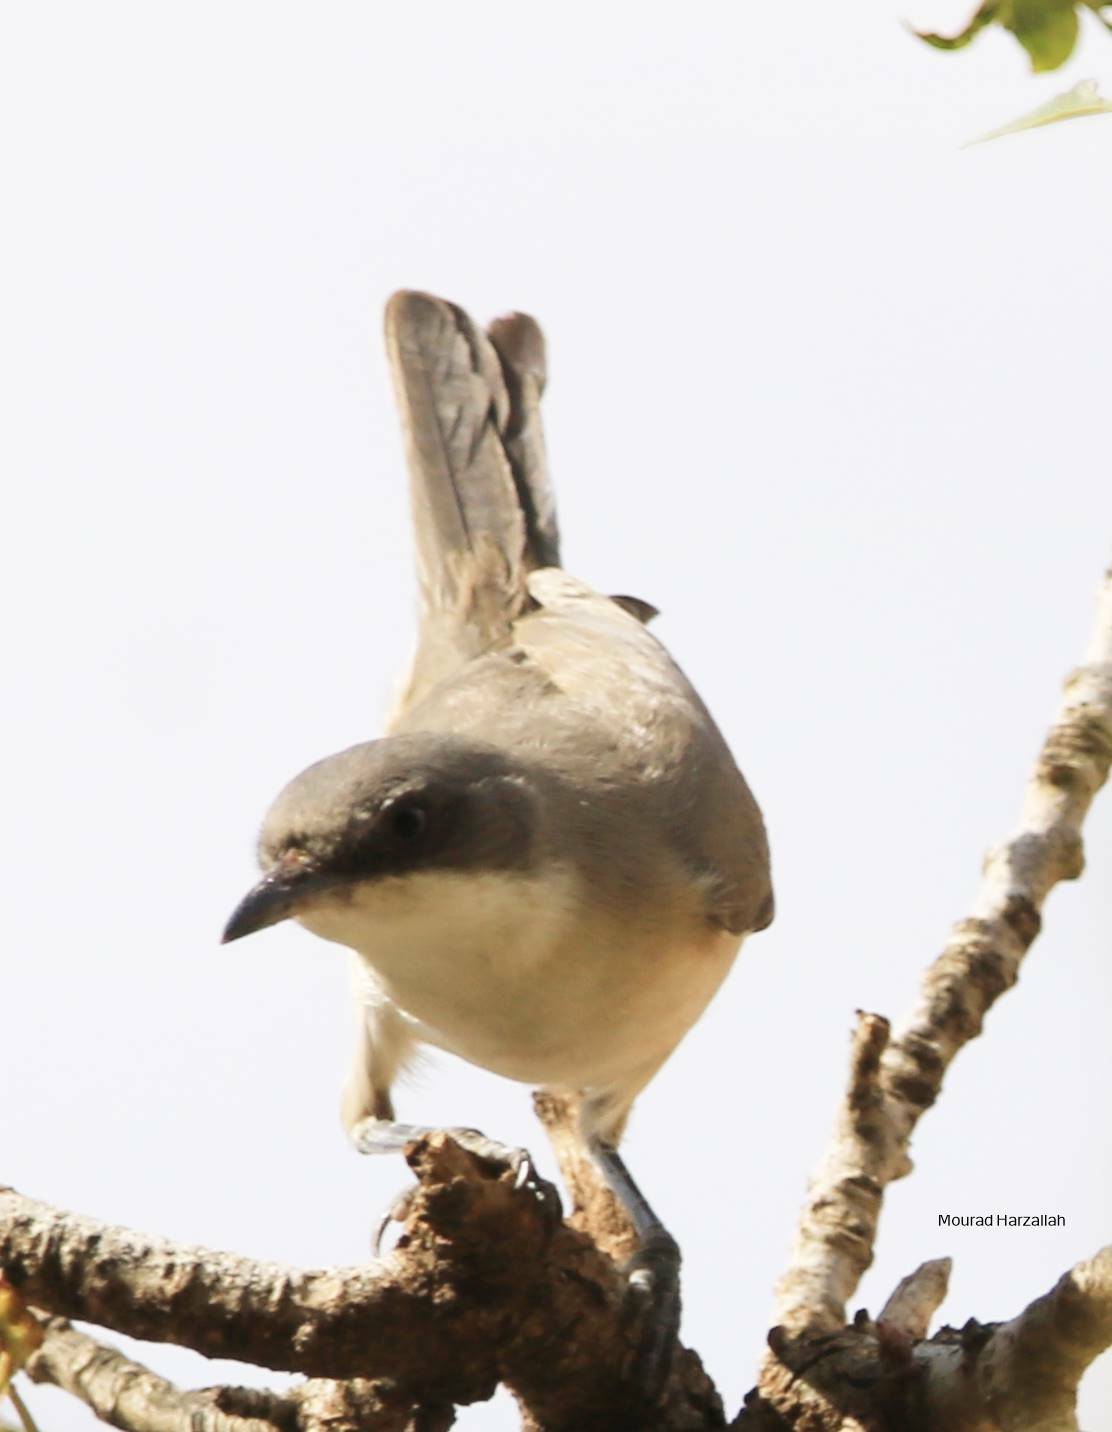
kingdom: Animalia
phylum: Chordata
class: Aves
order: Passeriformes
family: Sylviidae
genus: Sylvia
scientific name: Sylvia hortensis
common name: Orphean warbler
